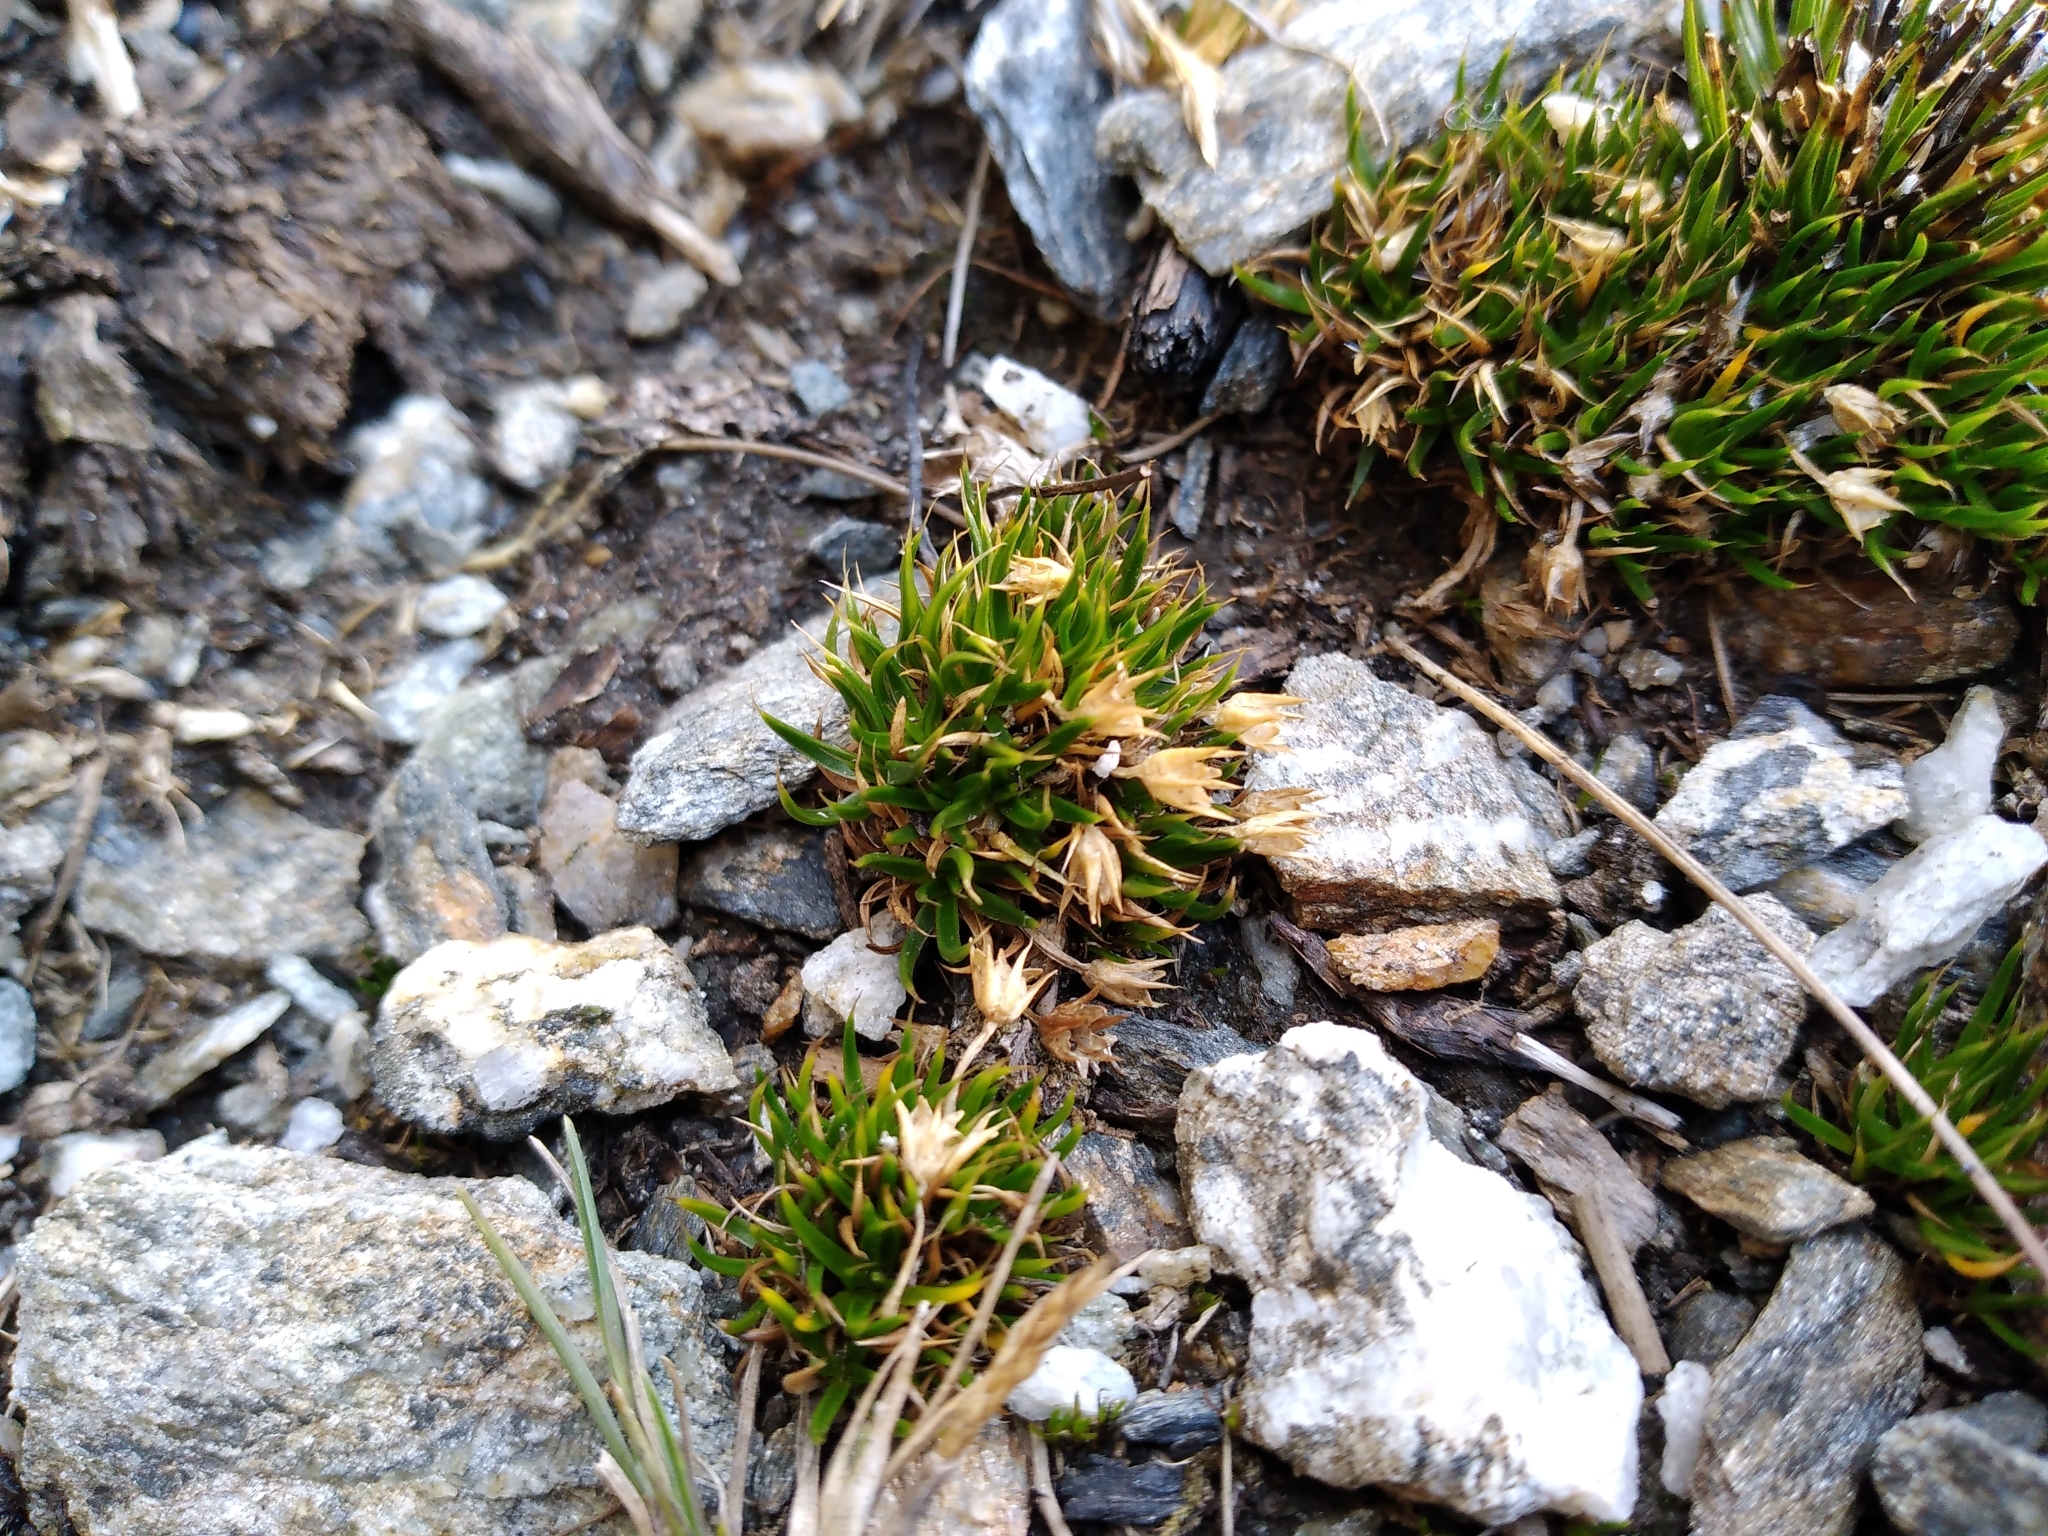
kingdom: Plantae
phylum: Tracheophyta
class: Magnoliopsida
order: Caryophyllales
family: Caryophyllaceae
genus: Colobanthus
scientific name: Colobanthus strictus
